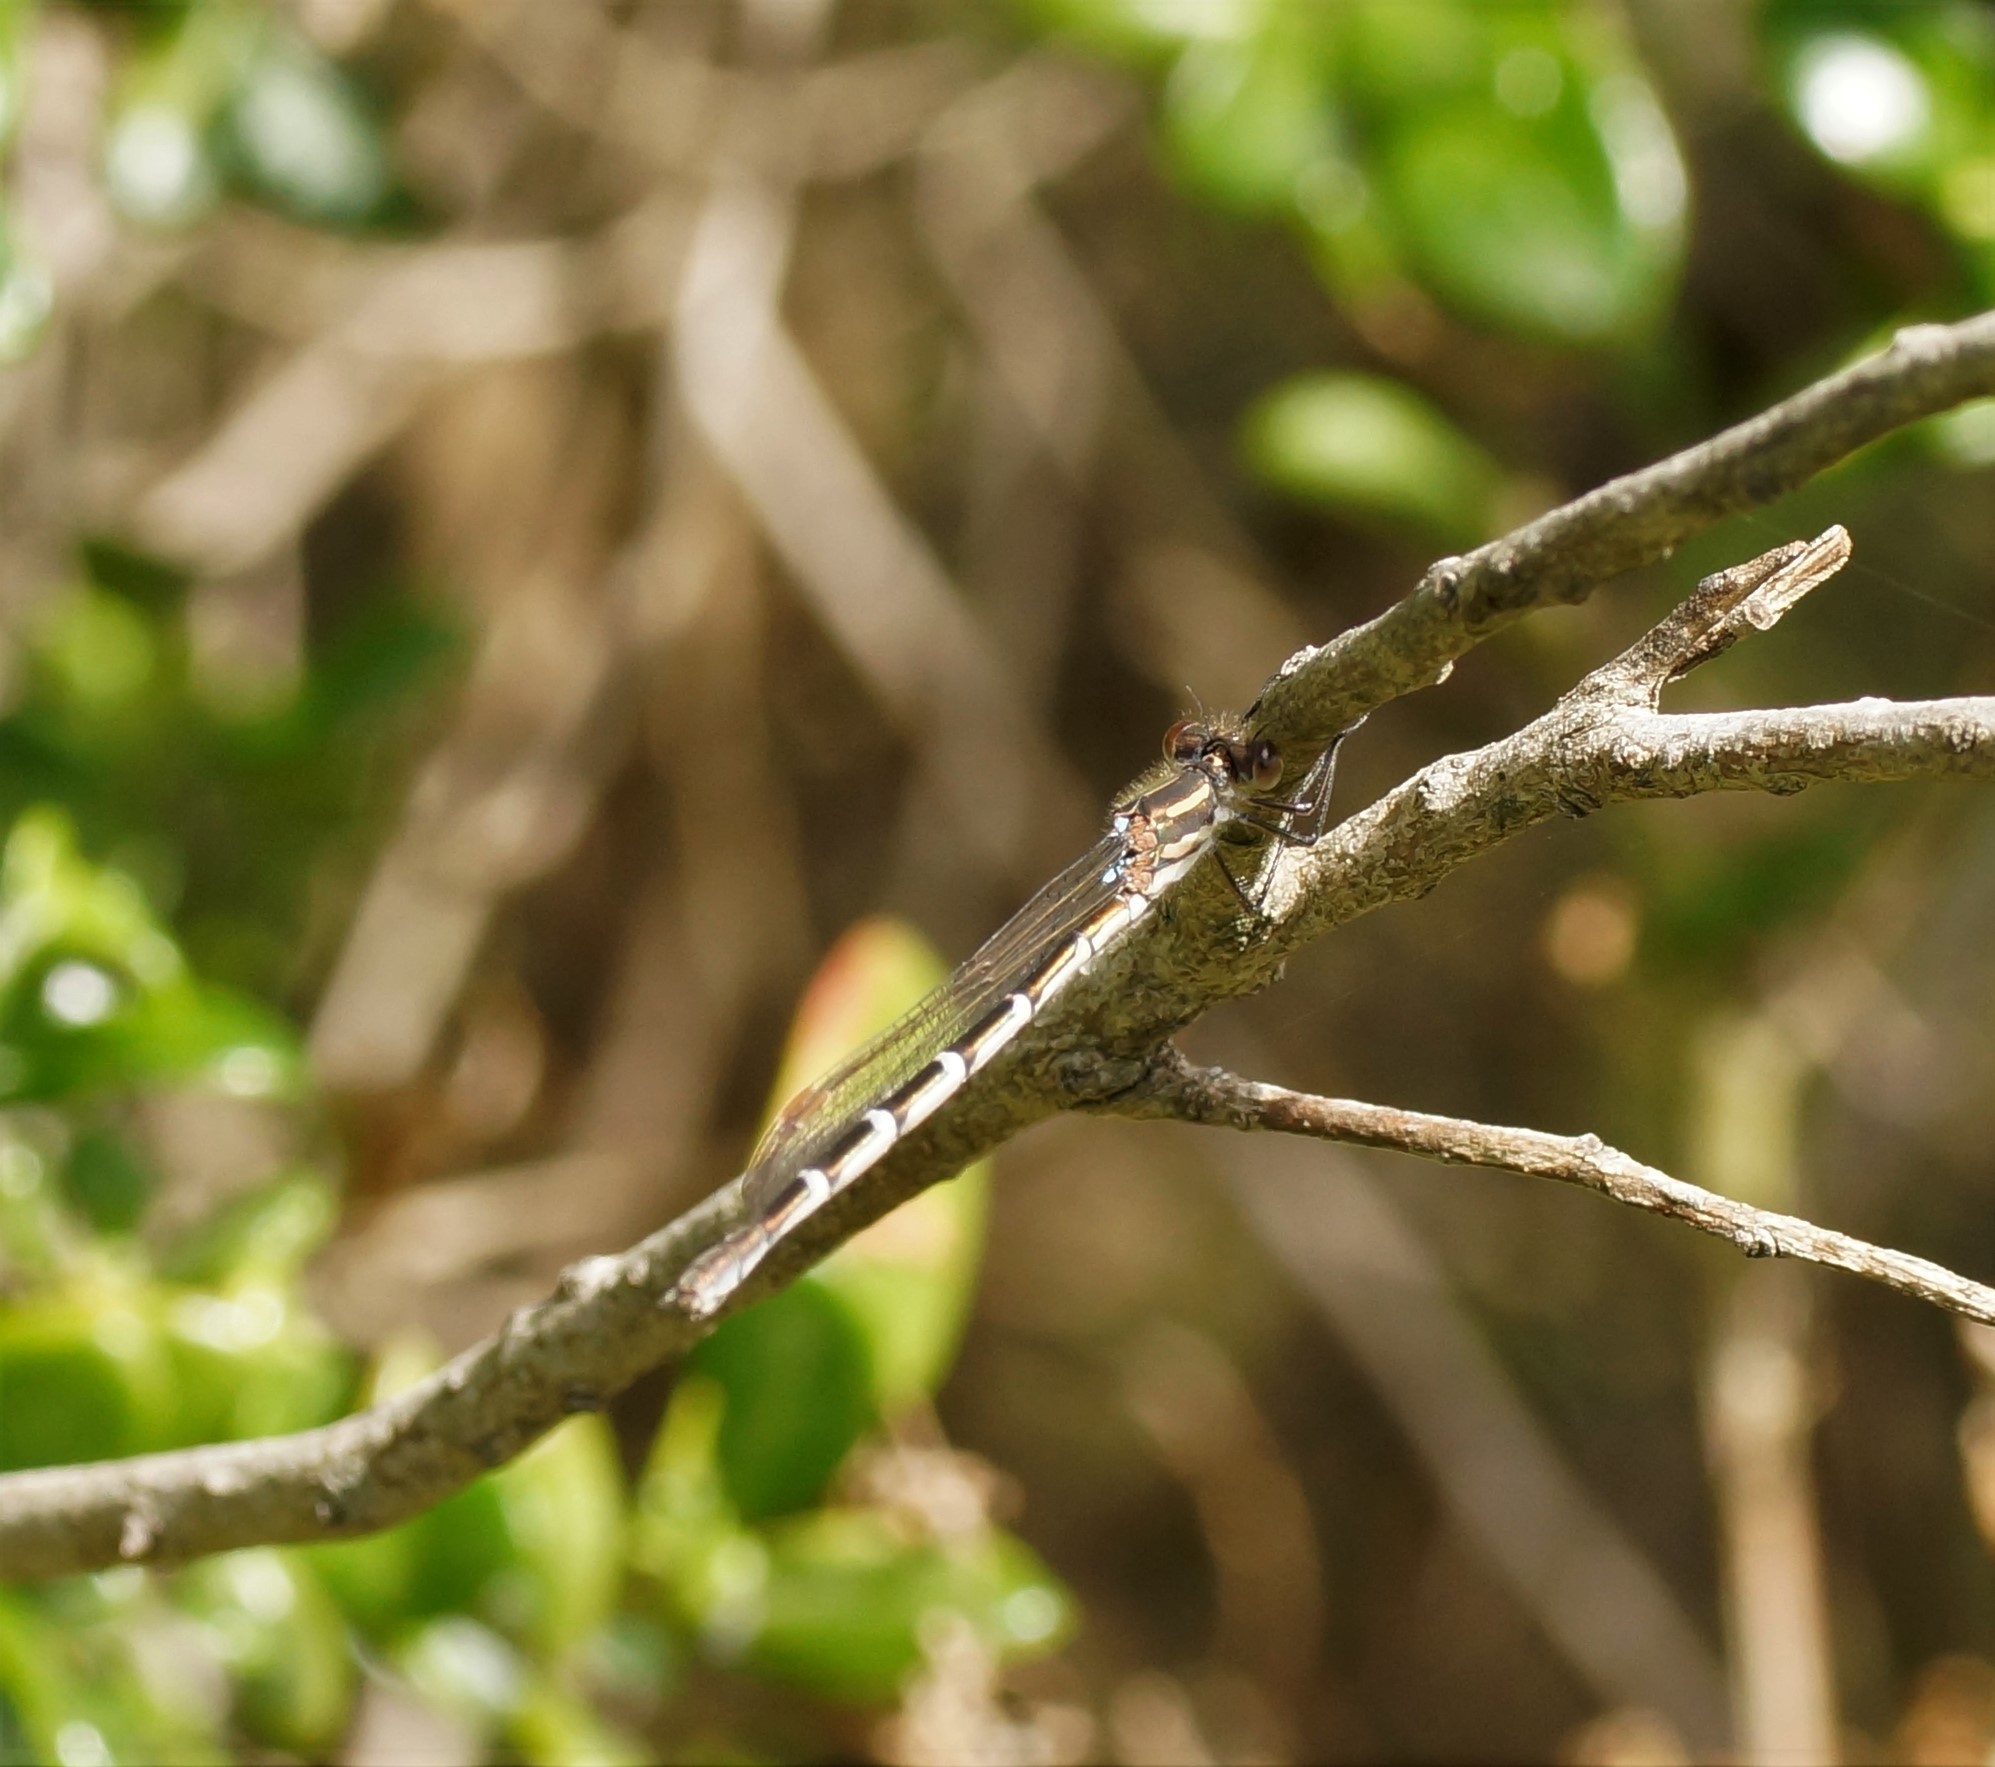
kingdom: Animalia
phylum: Arthropoda
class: Insecta
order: Odonata
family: Lestidae
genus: Austrolestes
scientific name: Austrolestes annulosus
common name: Blue ringtail
